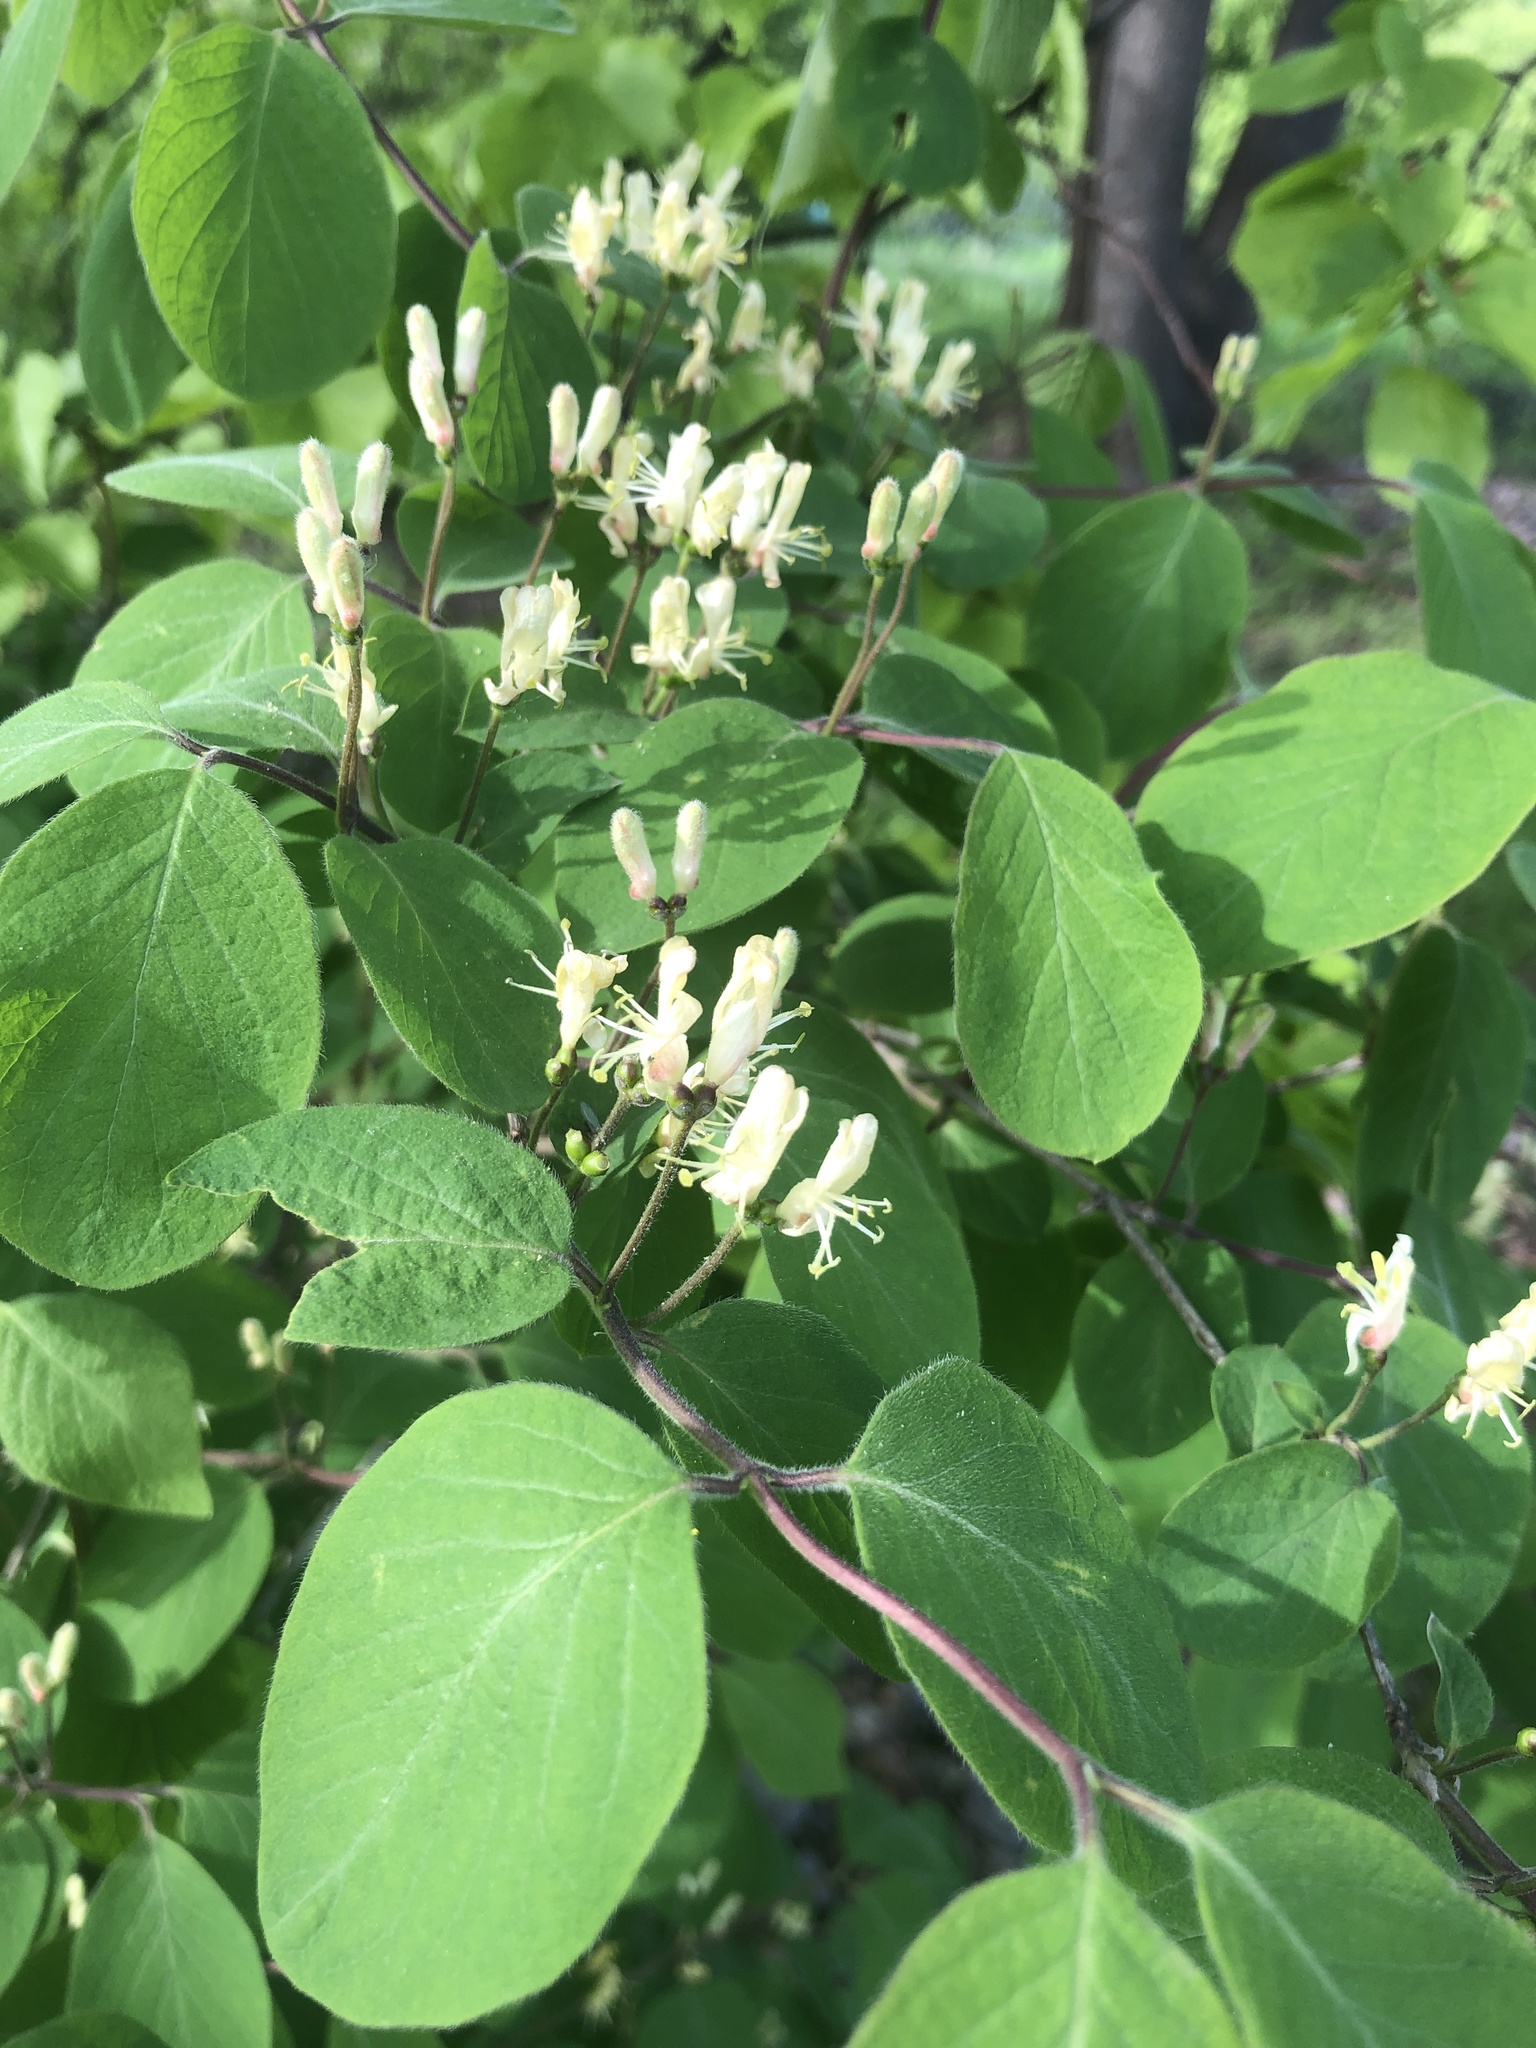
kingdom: Plantae
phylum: Tracheophyta
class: Magnoliopsida
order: Dipsacales
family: Caprifoliaceae
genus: Lonicera
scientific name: Lonicera xylosteum
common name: Fly honeysuckle
